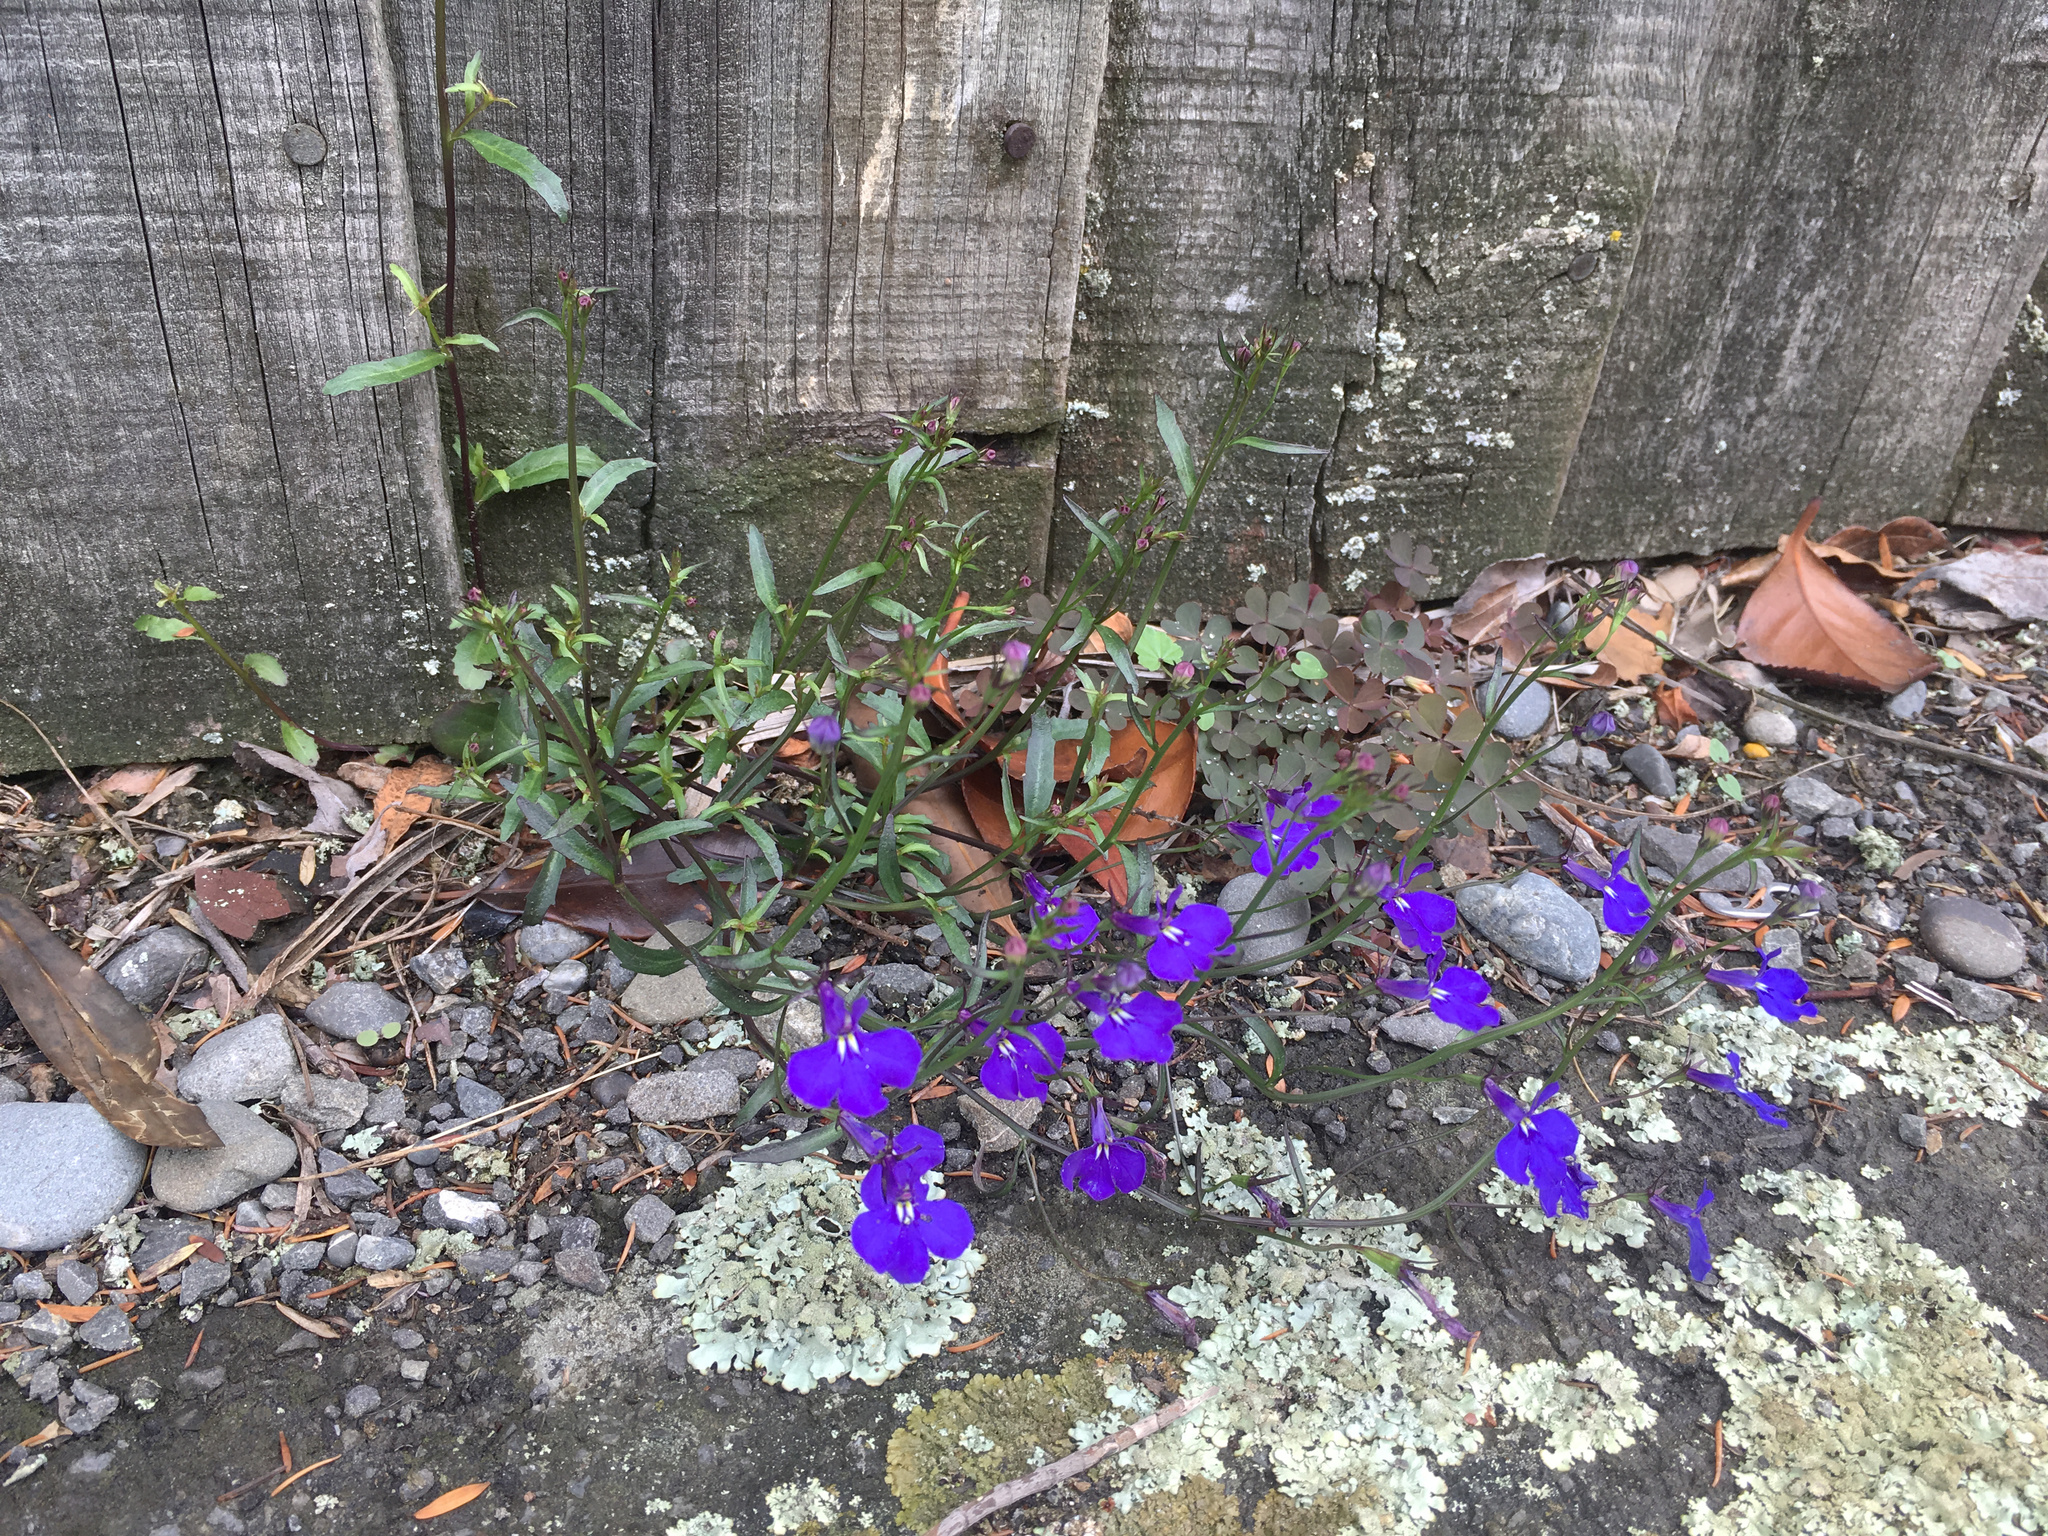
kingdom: Plantae
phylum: Tracheophyta
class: Magnoliopsida
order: Asterales
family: Campanulaceae
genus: Lobelia
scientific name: Lobelia erinus
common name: Edging lobelia
